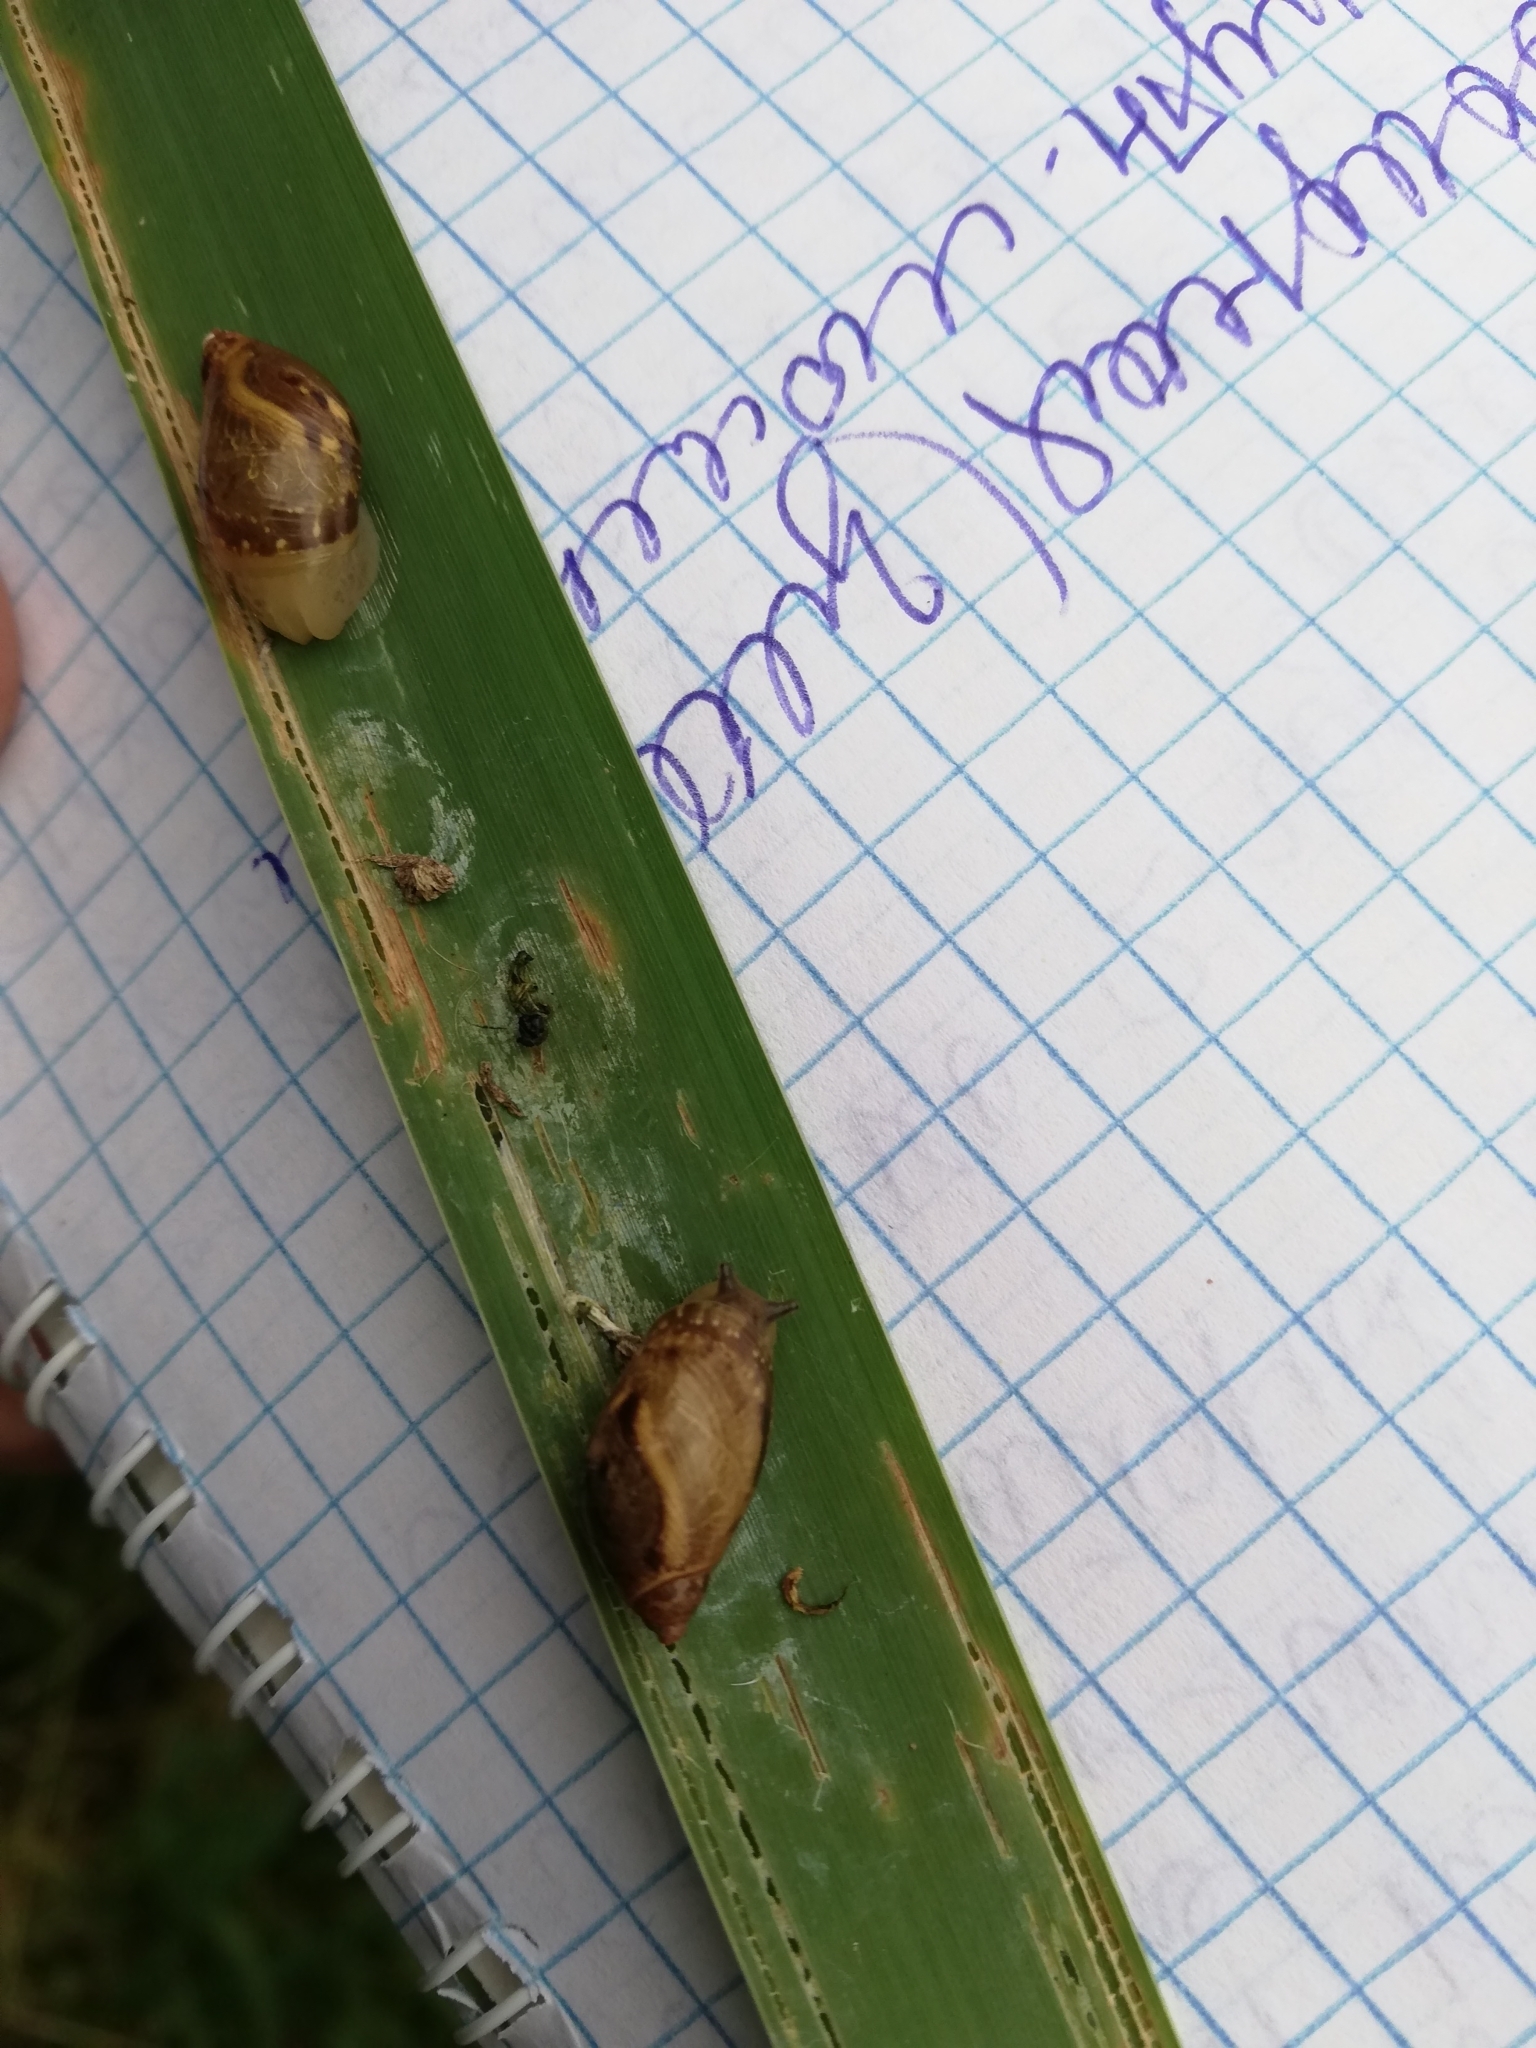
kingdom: Animalia
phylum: Mollusca
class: Gastropoda
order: Stylommatophora
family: Succineidae
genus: Succinea
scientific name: Succinea putris
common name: European ambersnail
